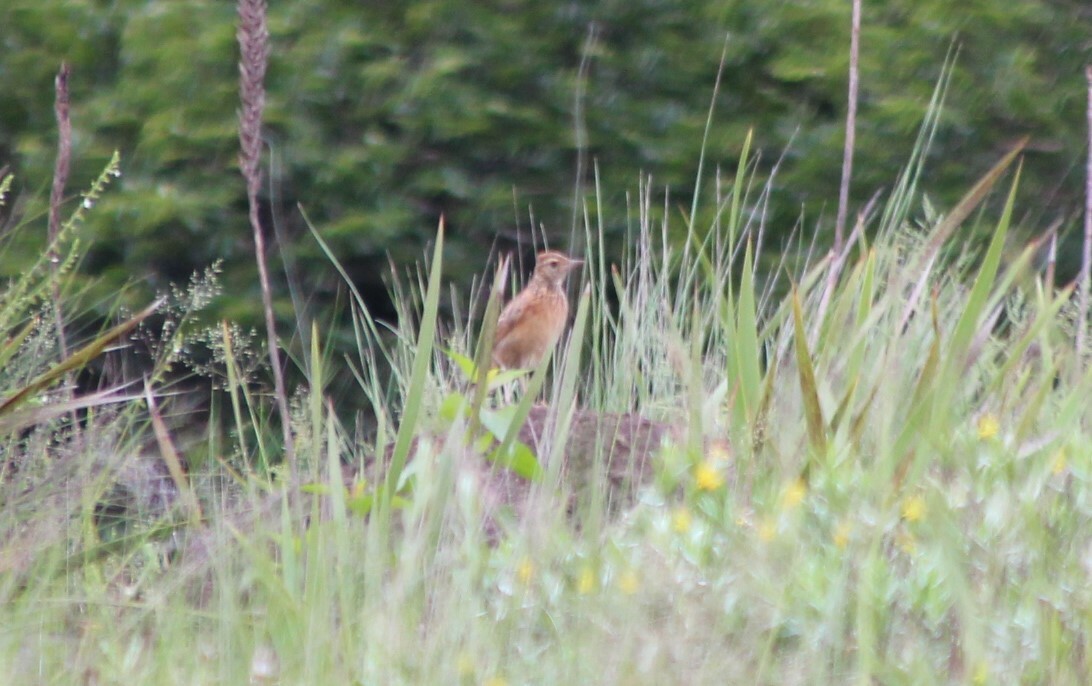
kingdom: Animalia
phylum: Chordata
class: Aves
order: Passeriformes
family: Alaudidae
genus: Mirafra
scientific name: Mirafra africana
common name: Rufous-naped lark
